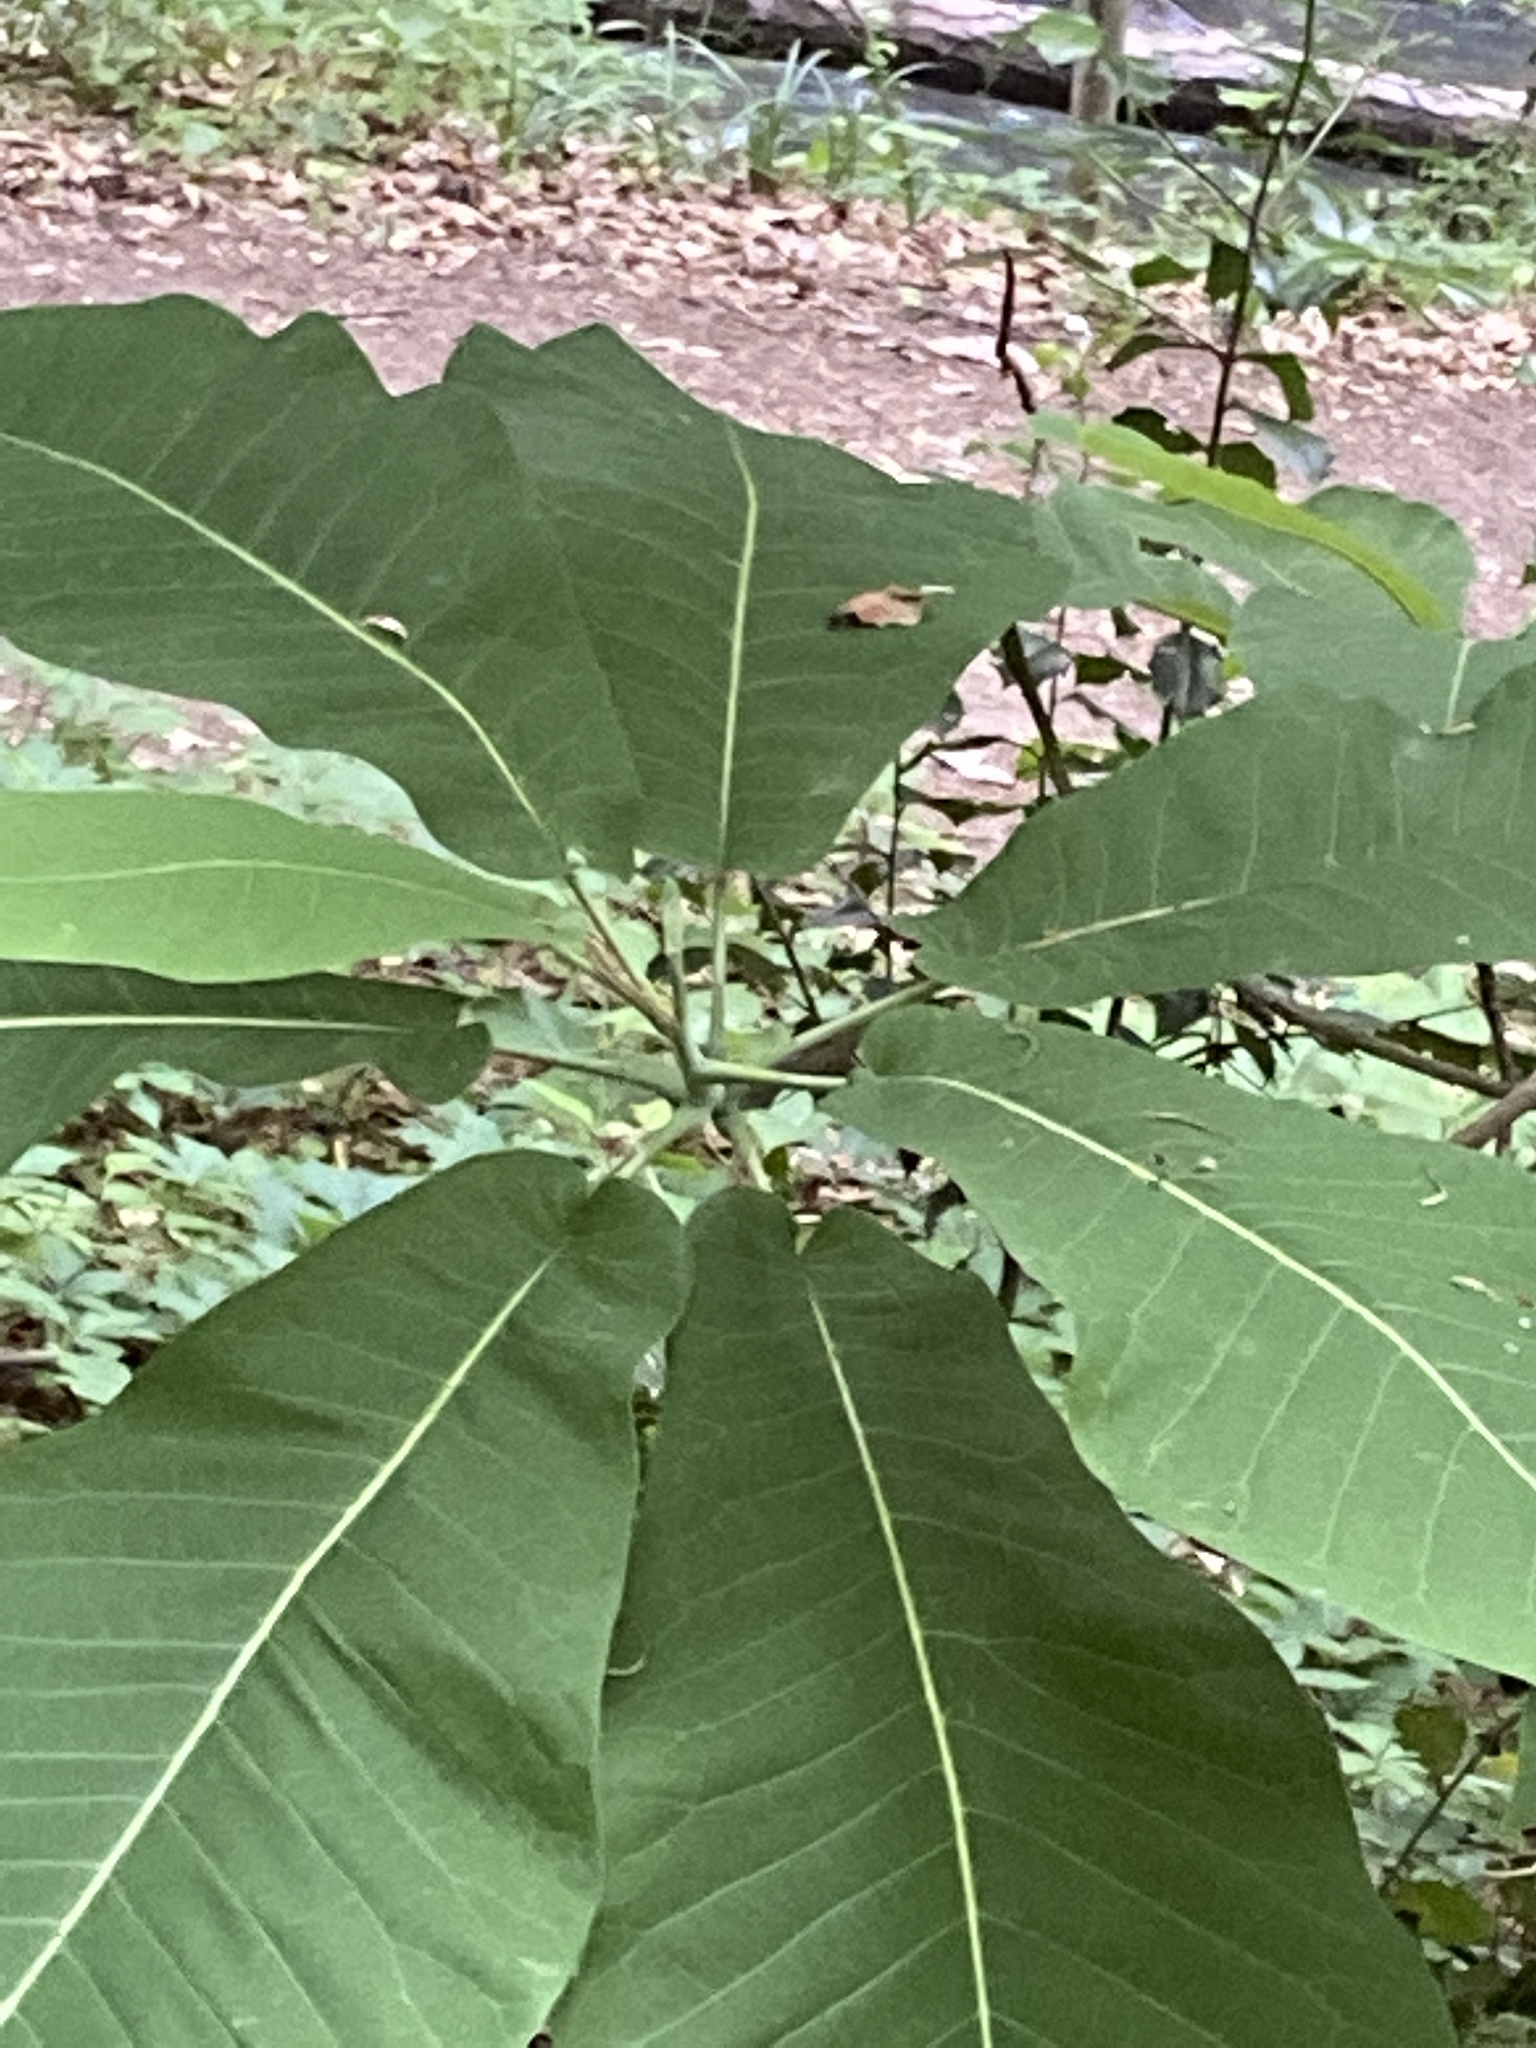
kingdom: Plantae
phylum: Tracheophyta
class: Magnoliopsida
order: Magnoliales
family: Magnoliaceae
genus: Magnolia
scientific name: Magnolia macrophylla
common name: Big-leaf magnolia
